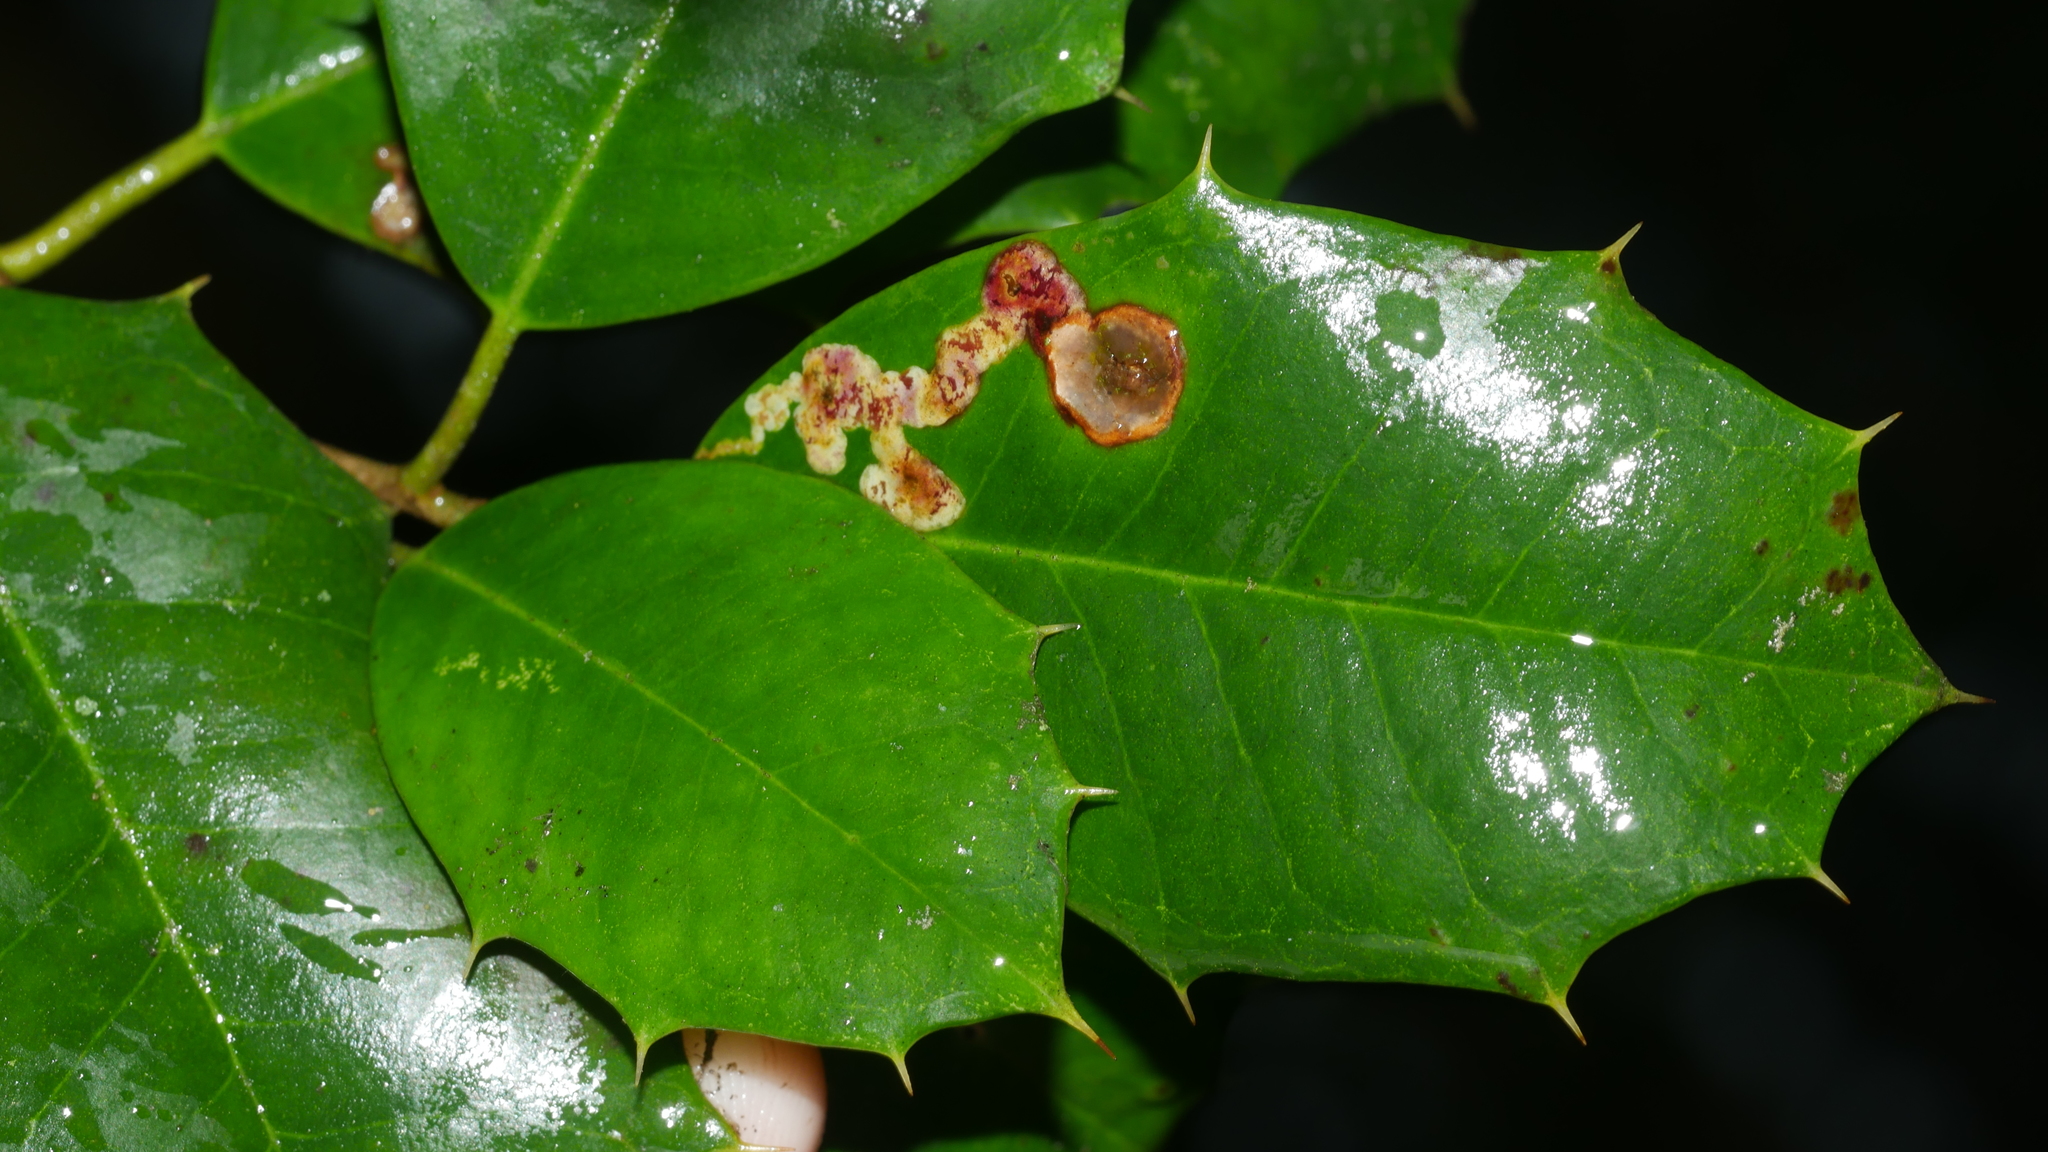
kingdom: Animalia
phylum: Arthropoda
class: Insecta
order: Diptera
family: Agromyzidae
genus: Phytomyza
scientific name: Phytomyza ilicicola
